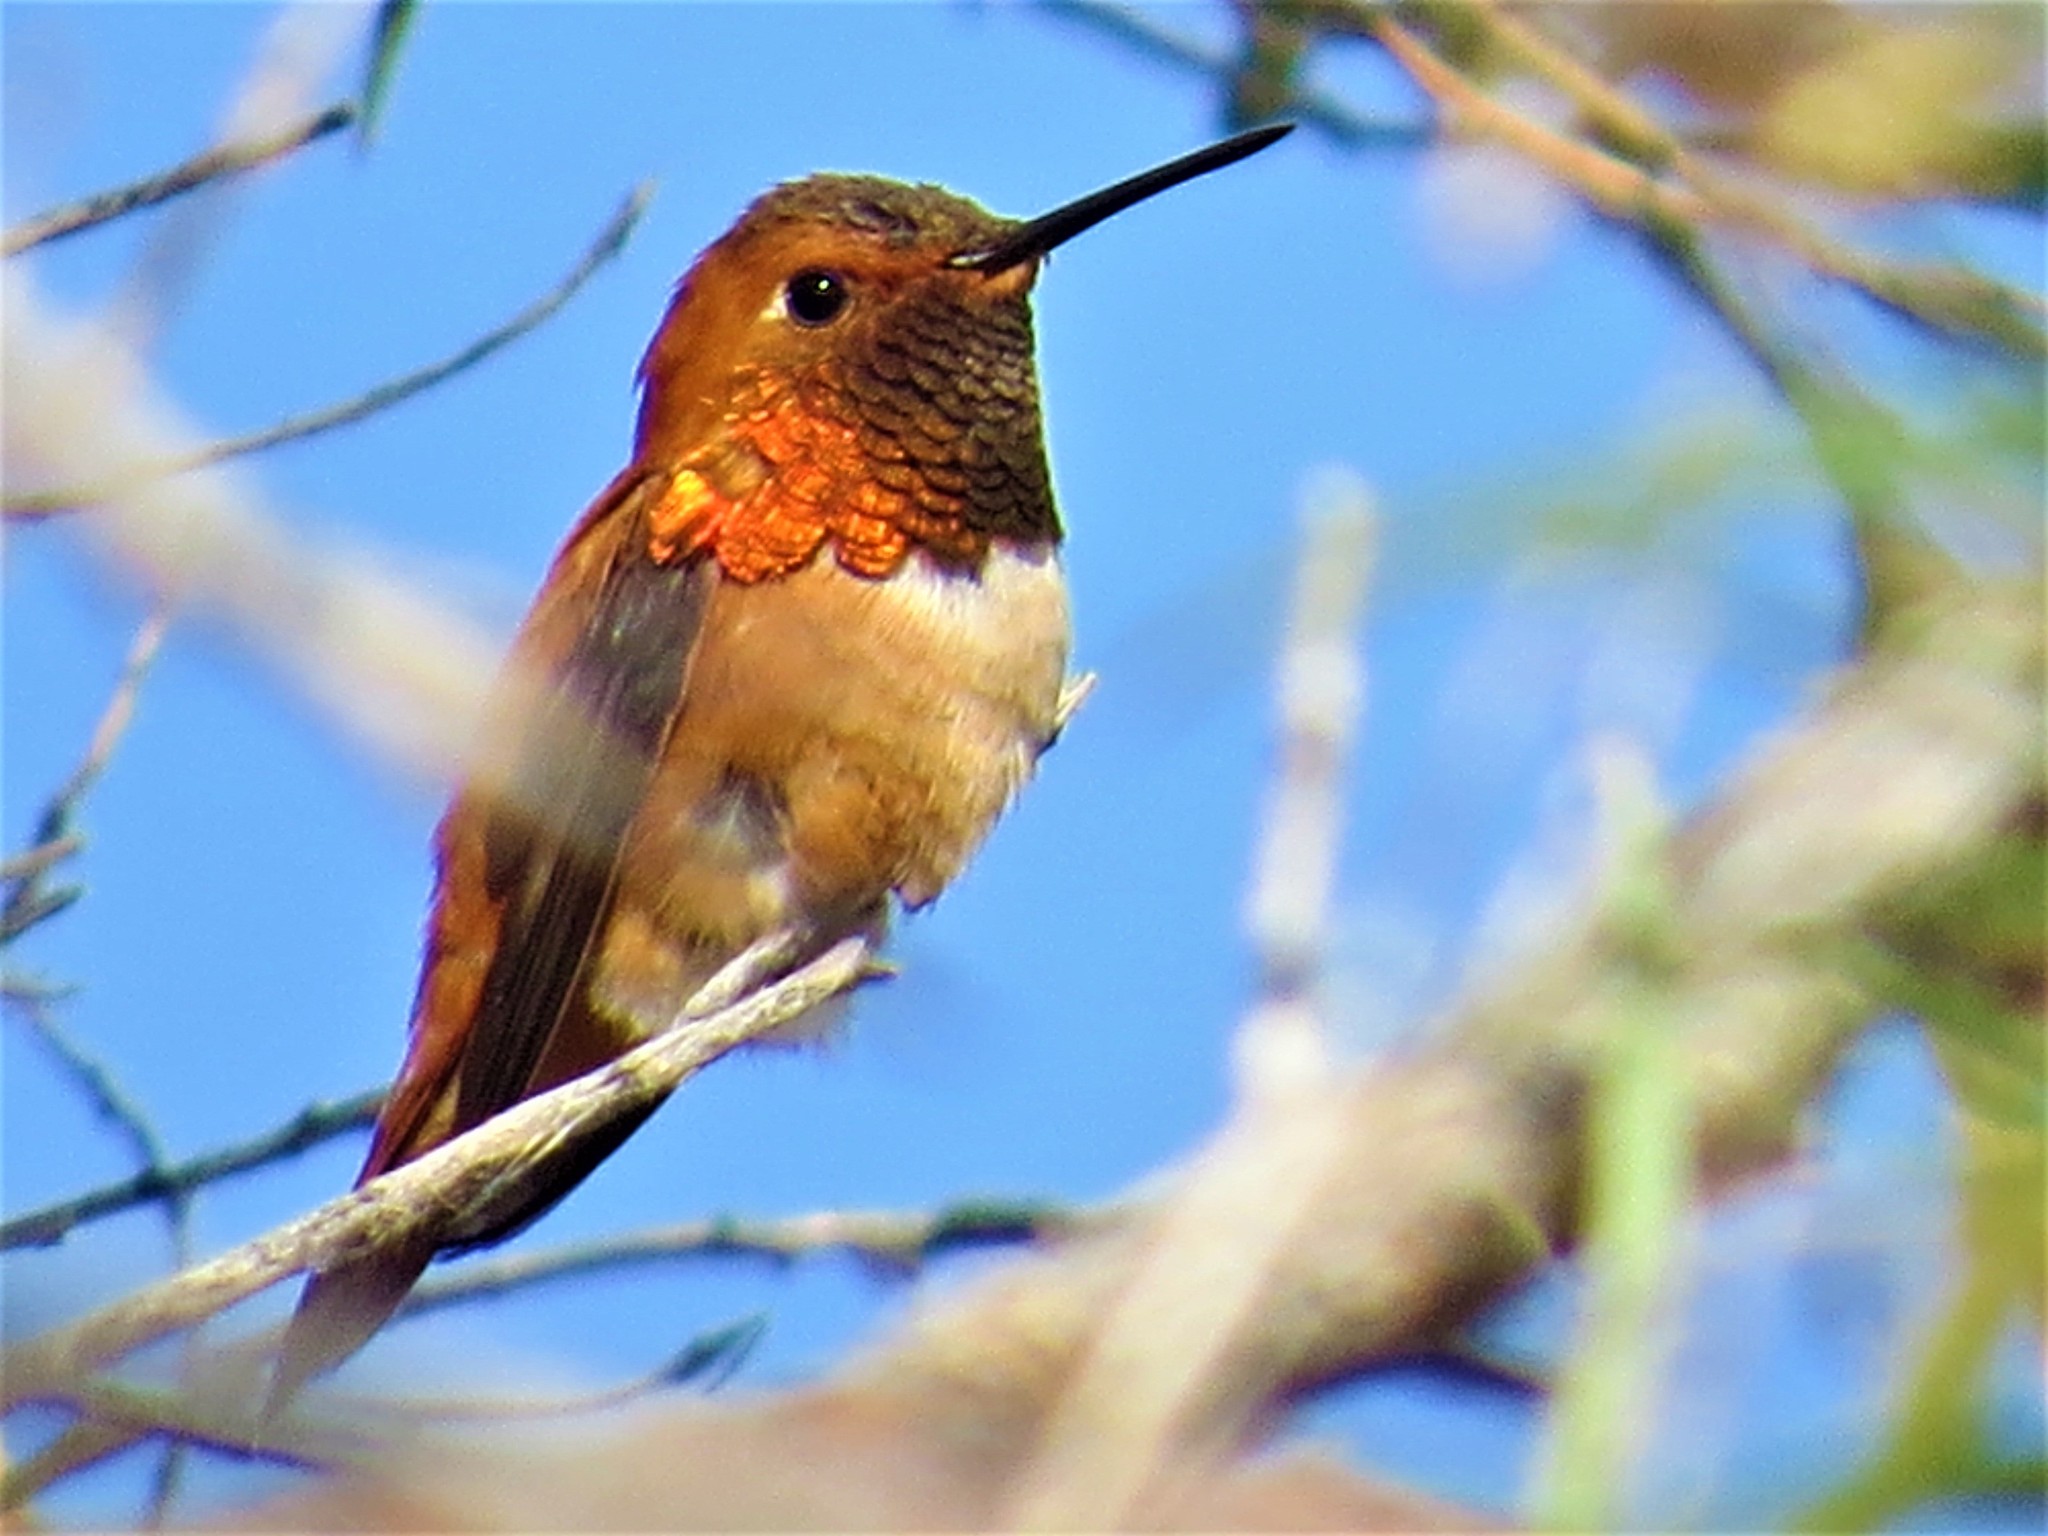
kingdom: Animalia
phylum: Chordata
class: Aves
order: Apodiformes
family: Trochilidae
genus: Selasphorus
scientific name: Selasphorus rufus
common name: Rufous hummingbird
